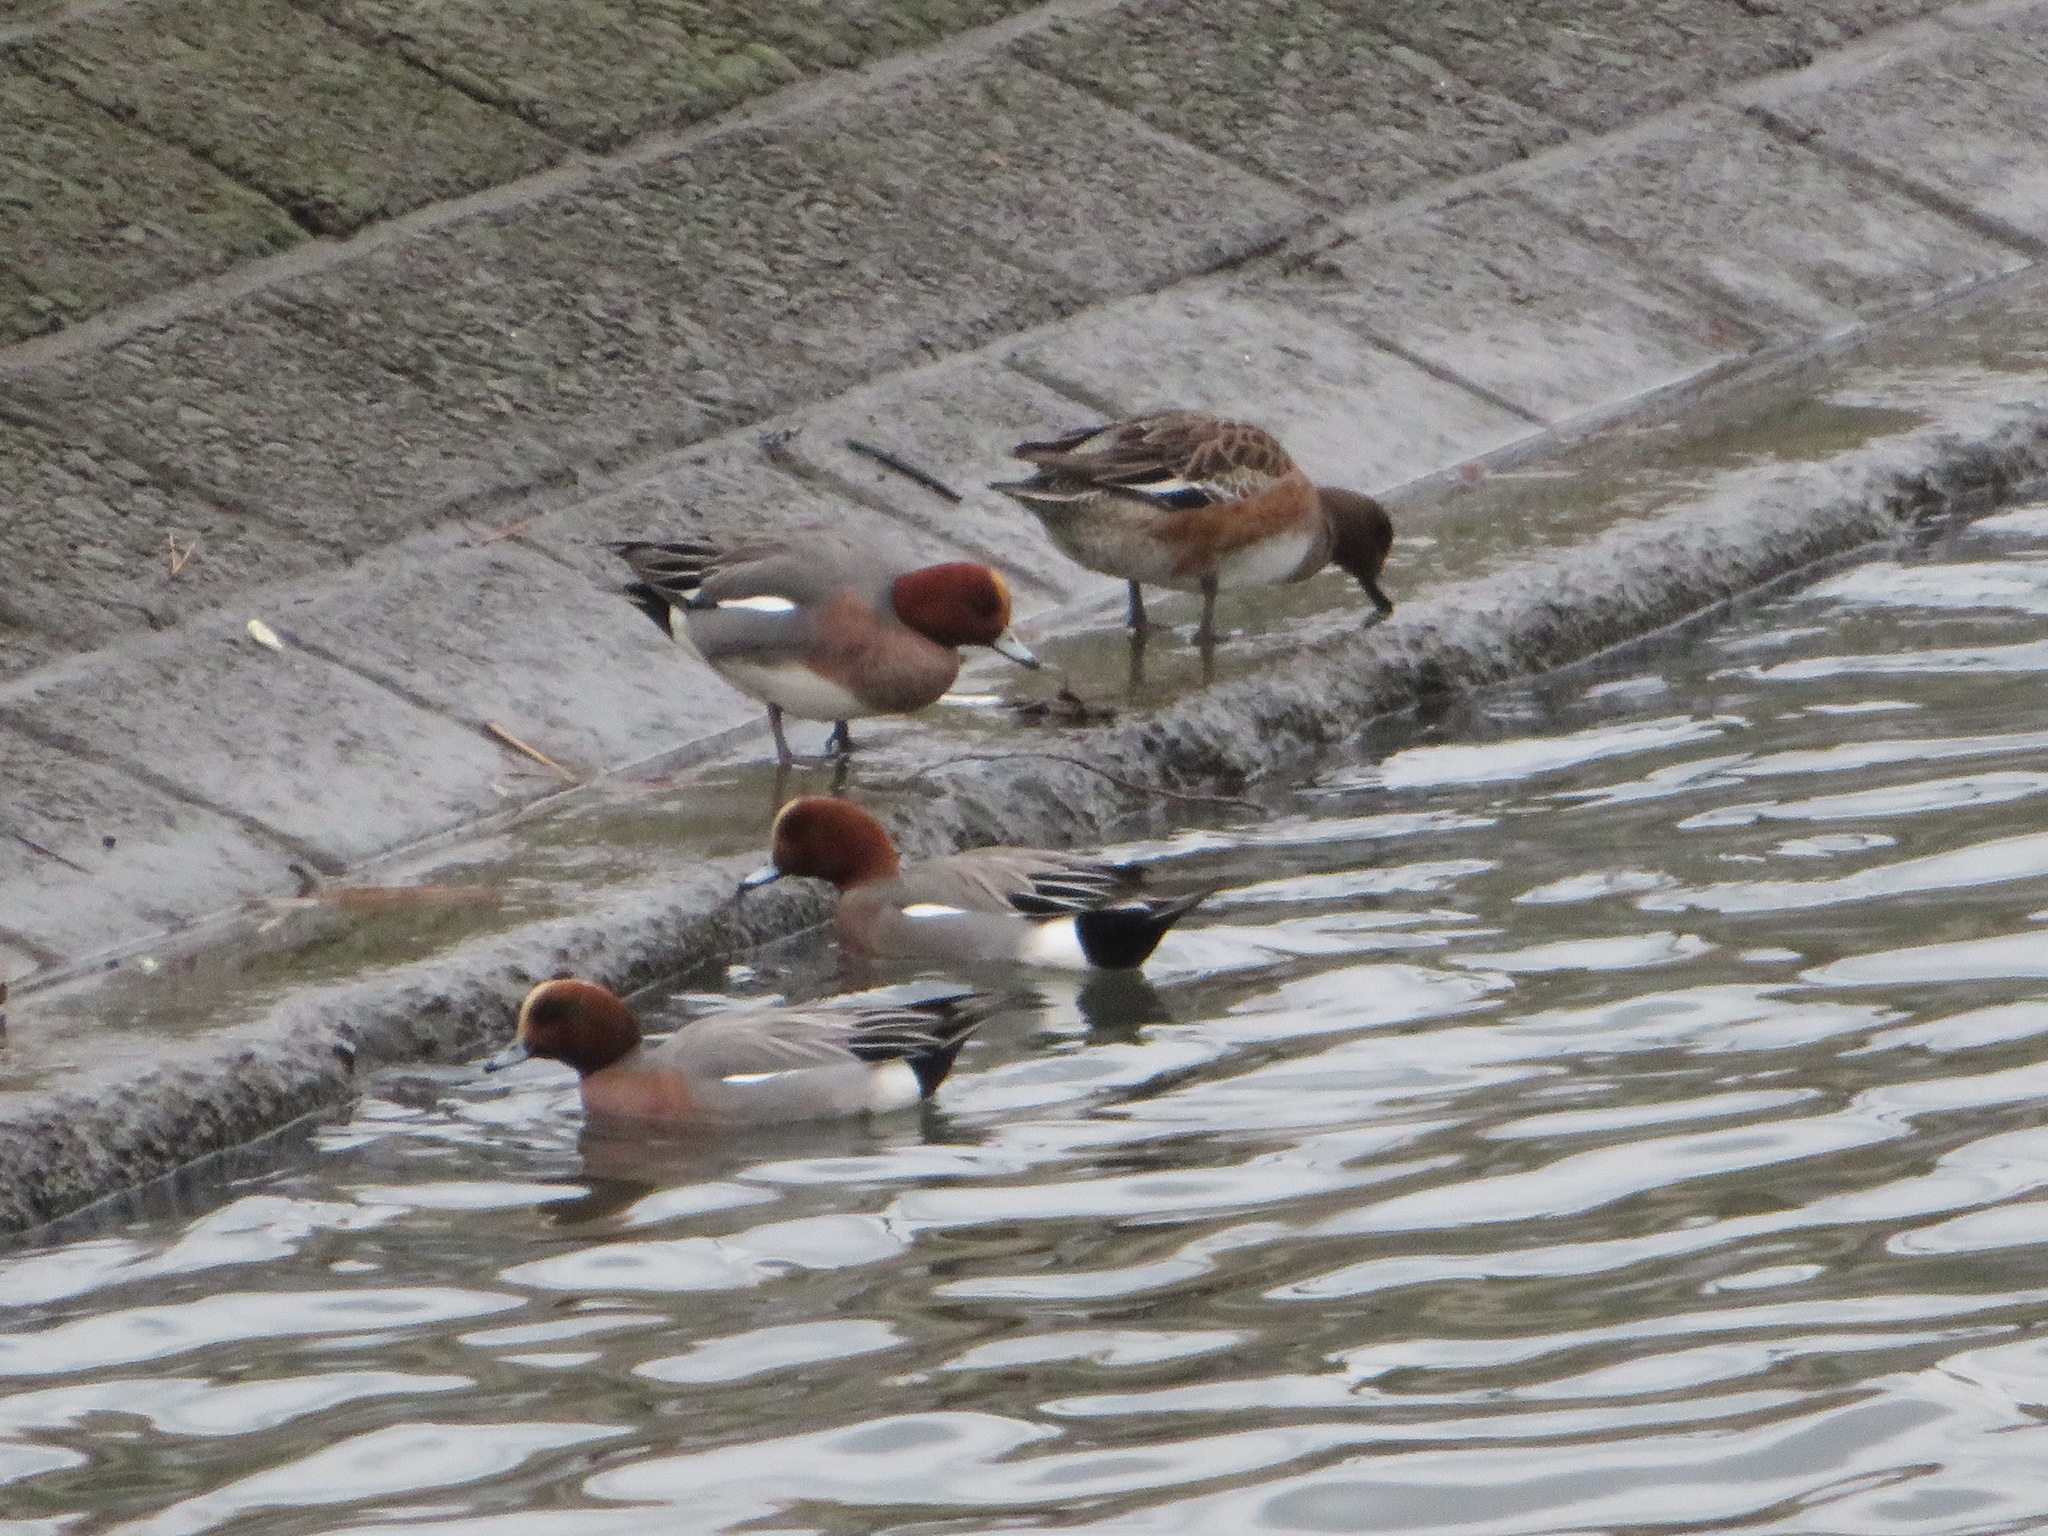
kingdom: Animalia
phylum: Chordata
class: Aves
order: Anseriformes
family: Anatidae
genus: Mareca
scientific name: Mareca penelope
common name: Eurasian wigeon
